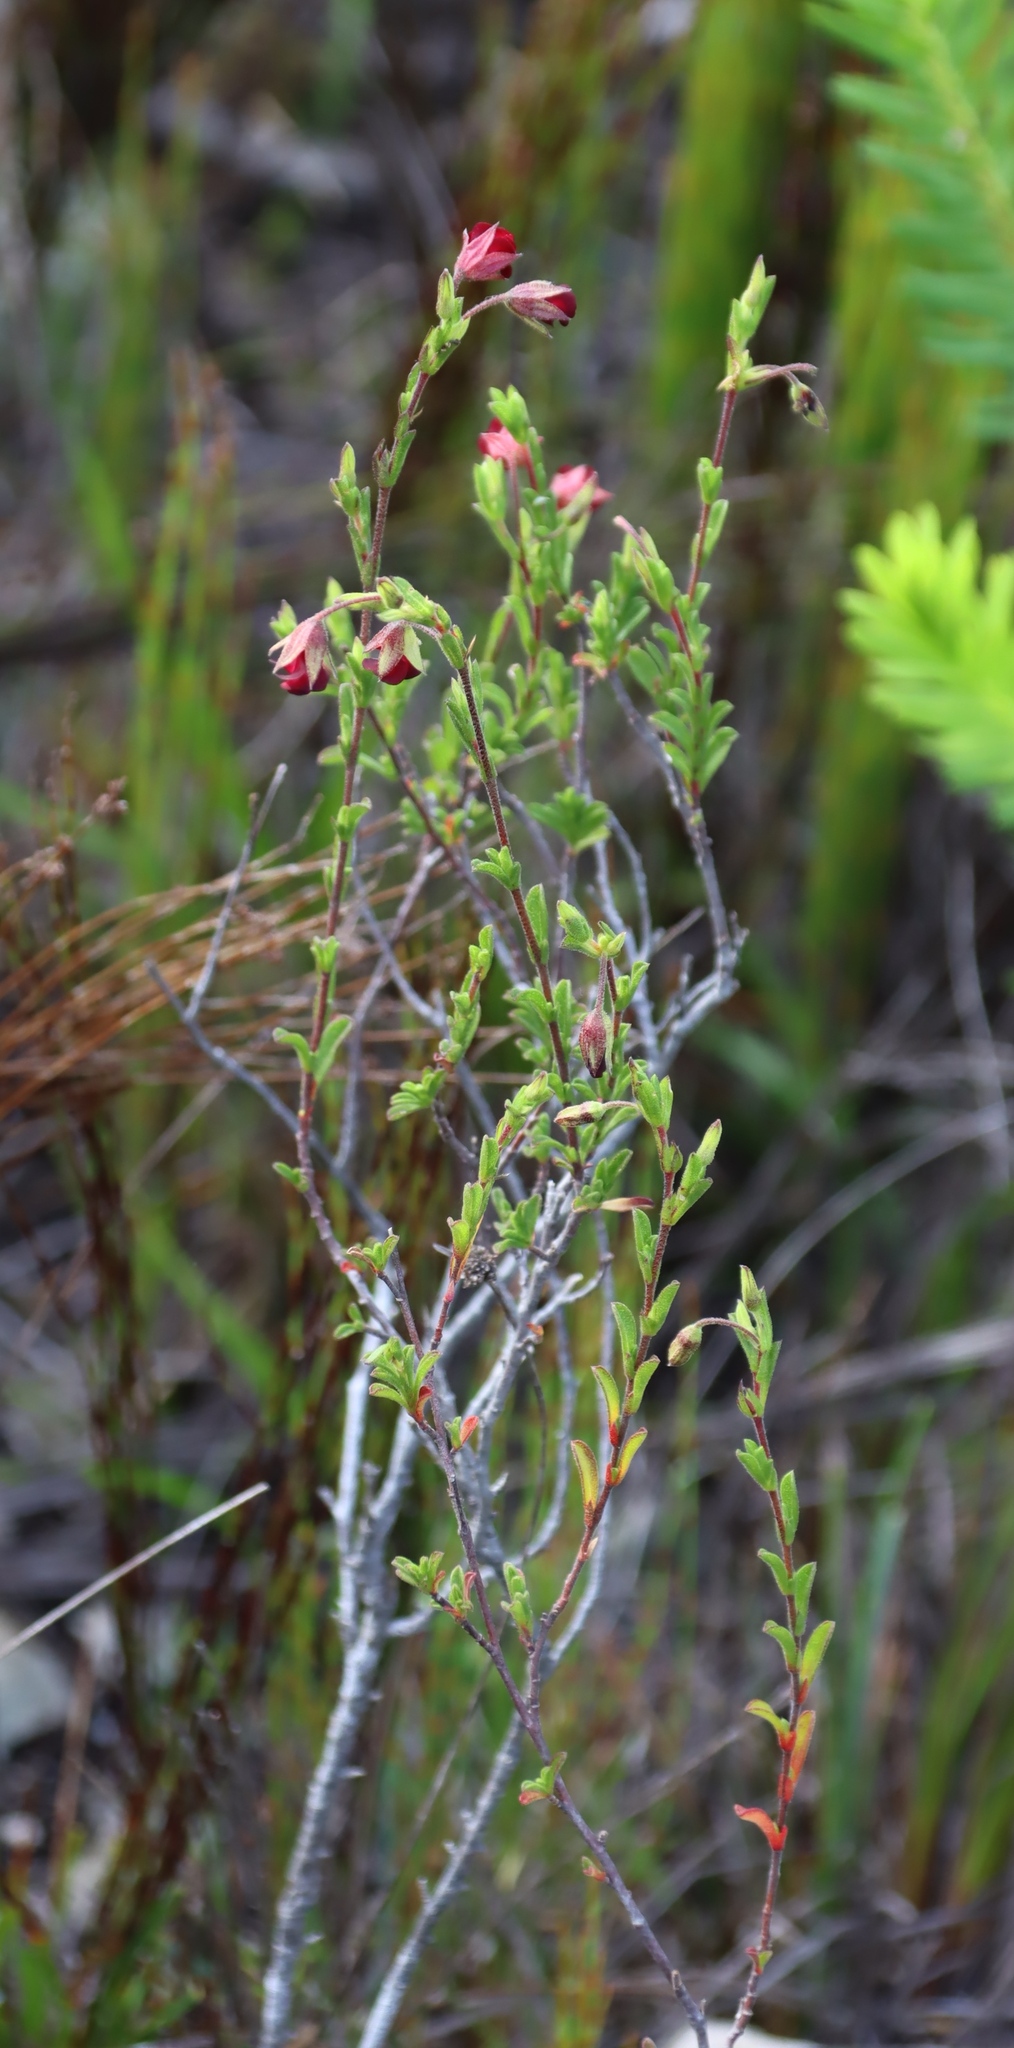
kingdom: Plantae
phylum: Tracheophyta
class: Magnoliopsida
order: Malvales
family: Malvaceae
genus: Hermannia
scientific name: Hermannia flammula
